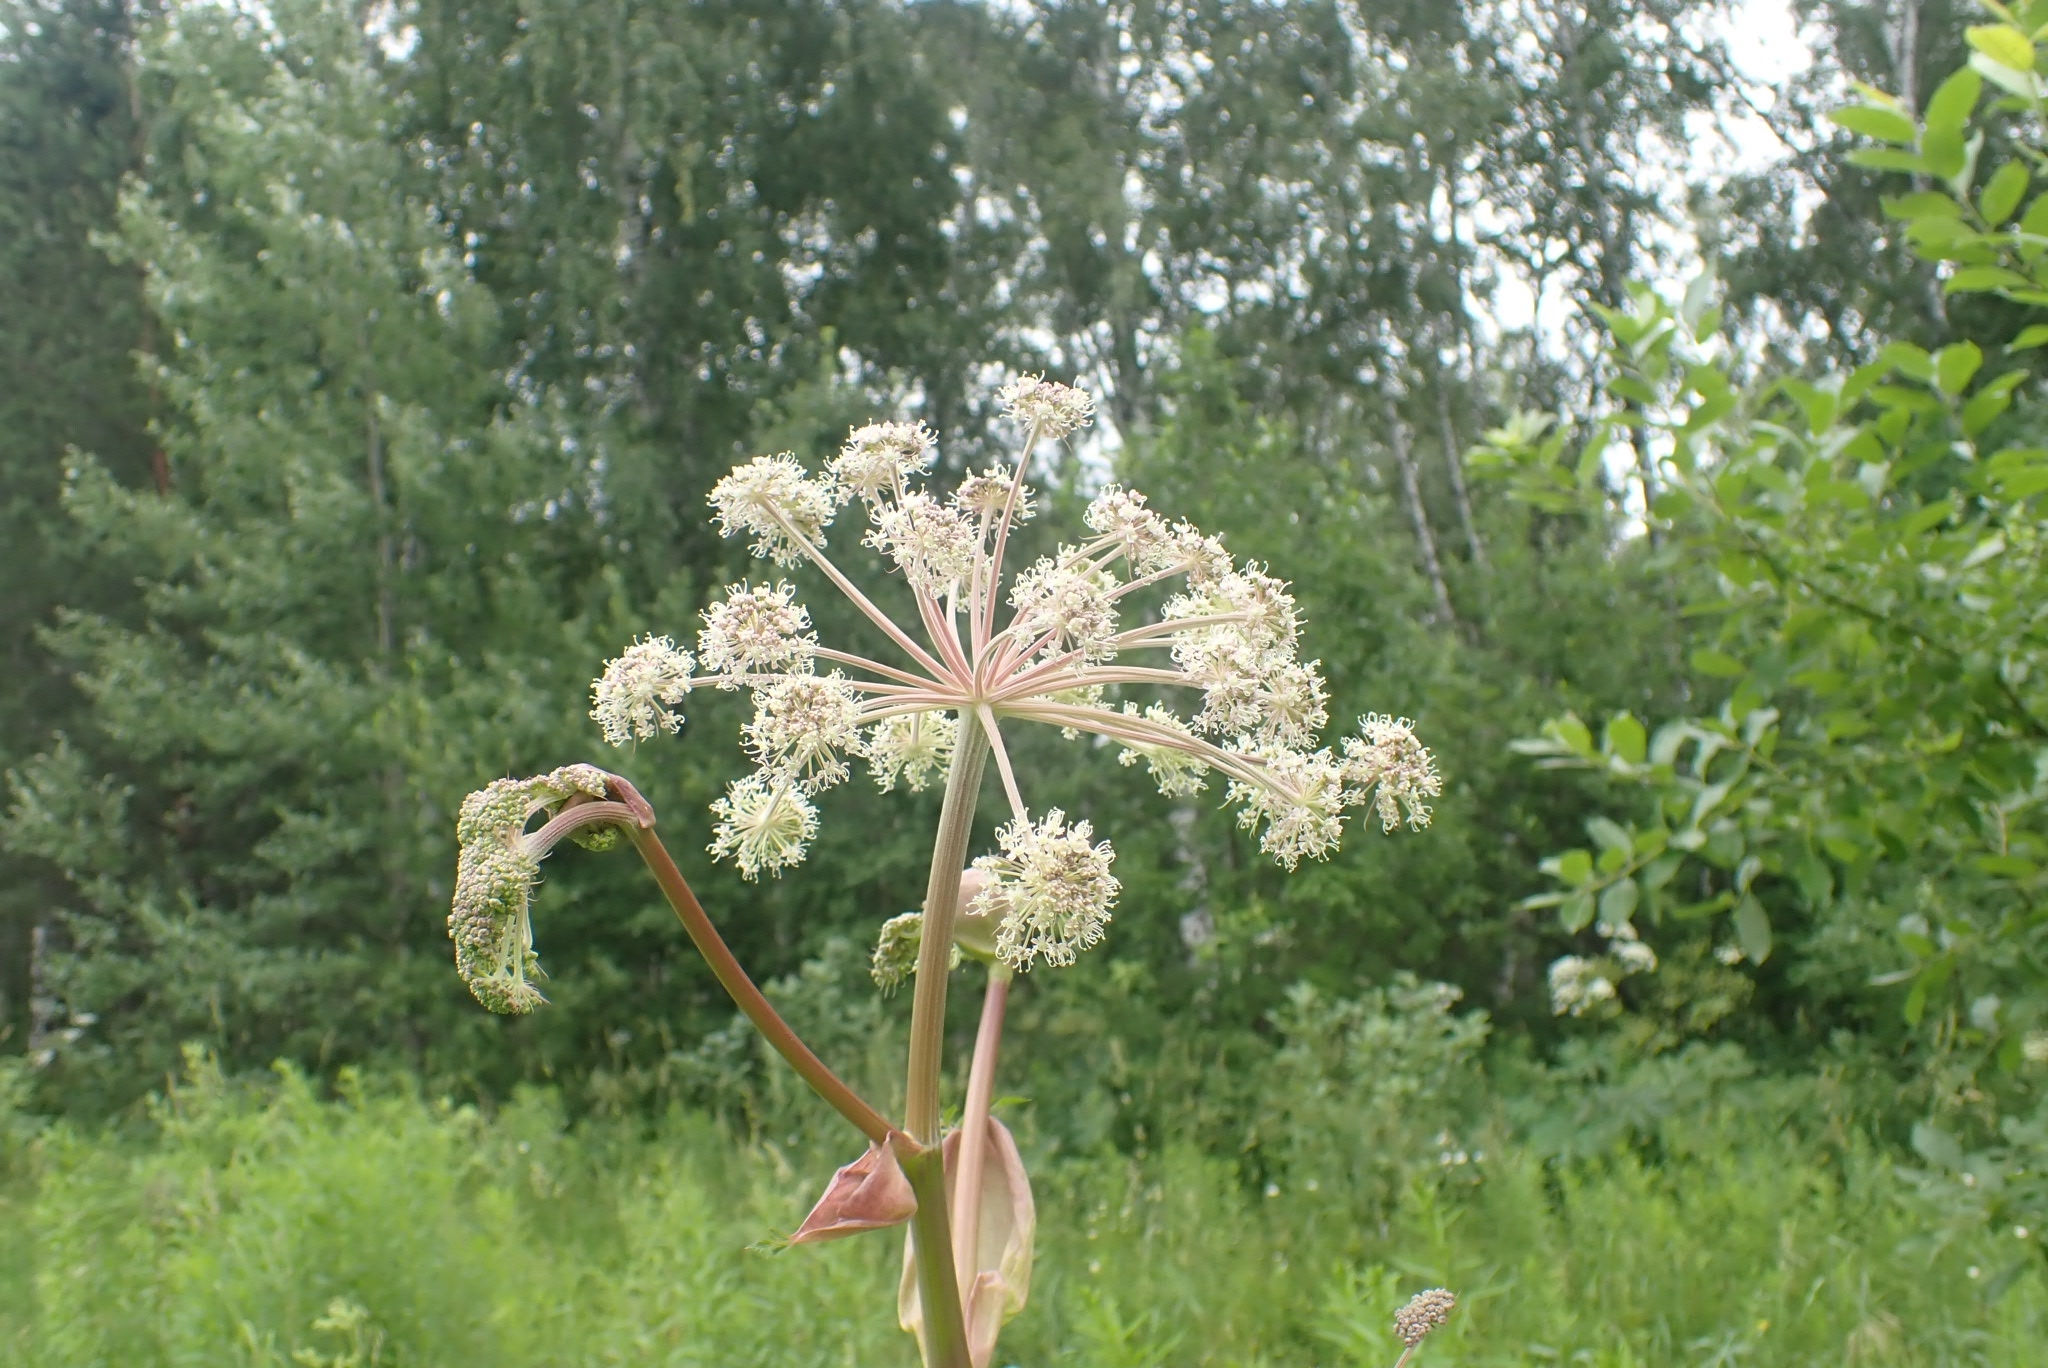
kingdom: Plantae
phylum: Tracheophyta
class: Magnoliopsida
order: Apiales
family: Apiaceae
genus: Angelica
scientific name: Angelica sylvestris
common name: Wild angelica
